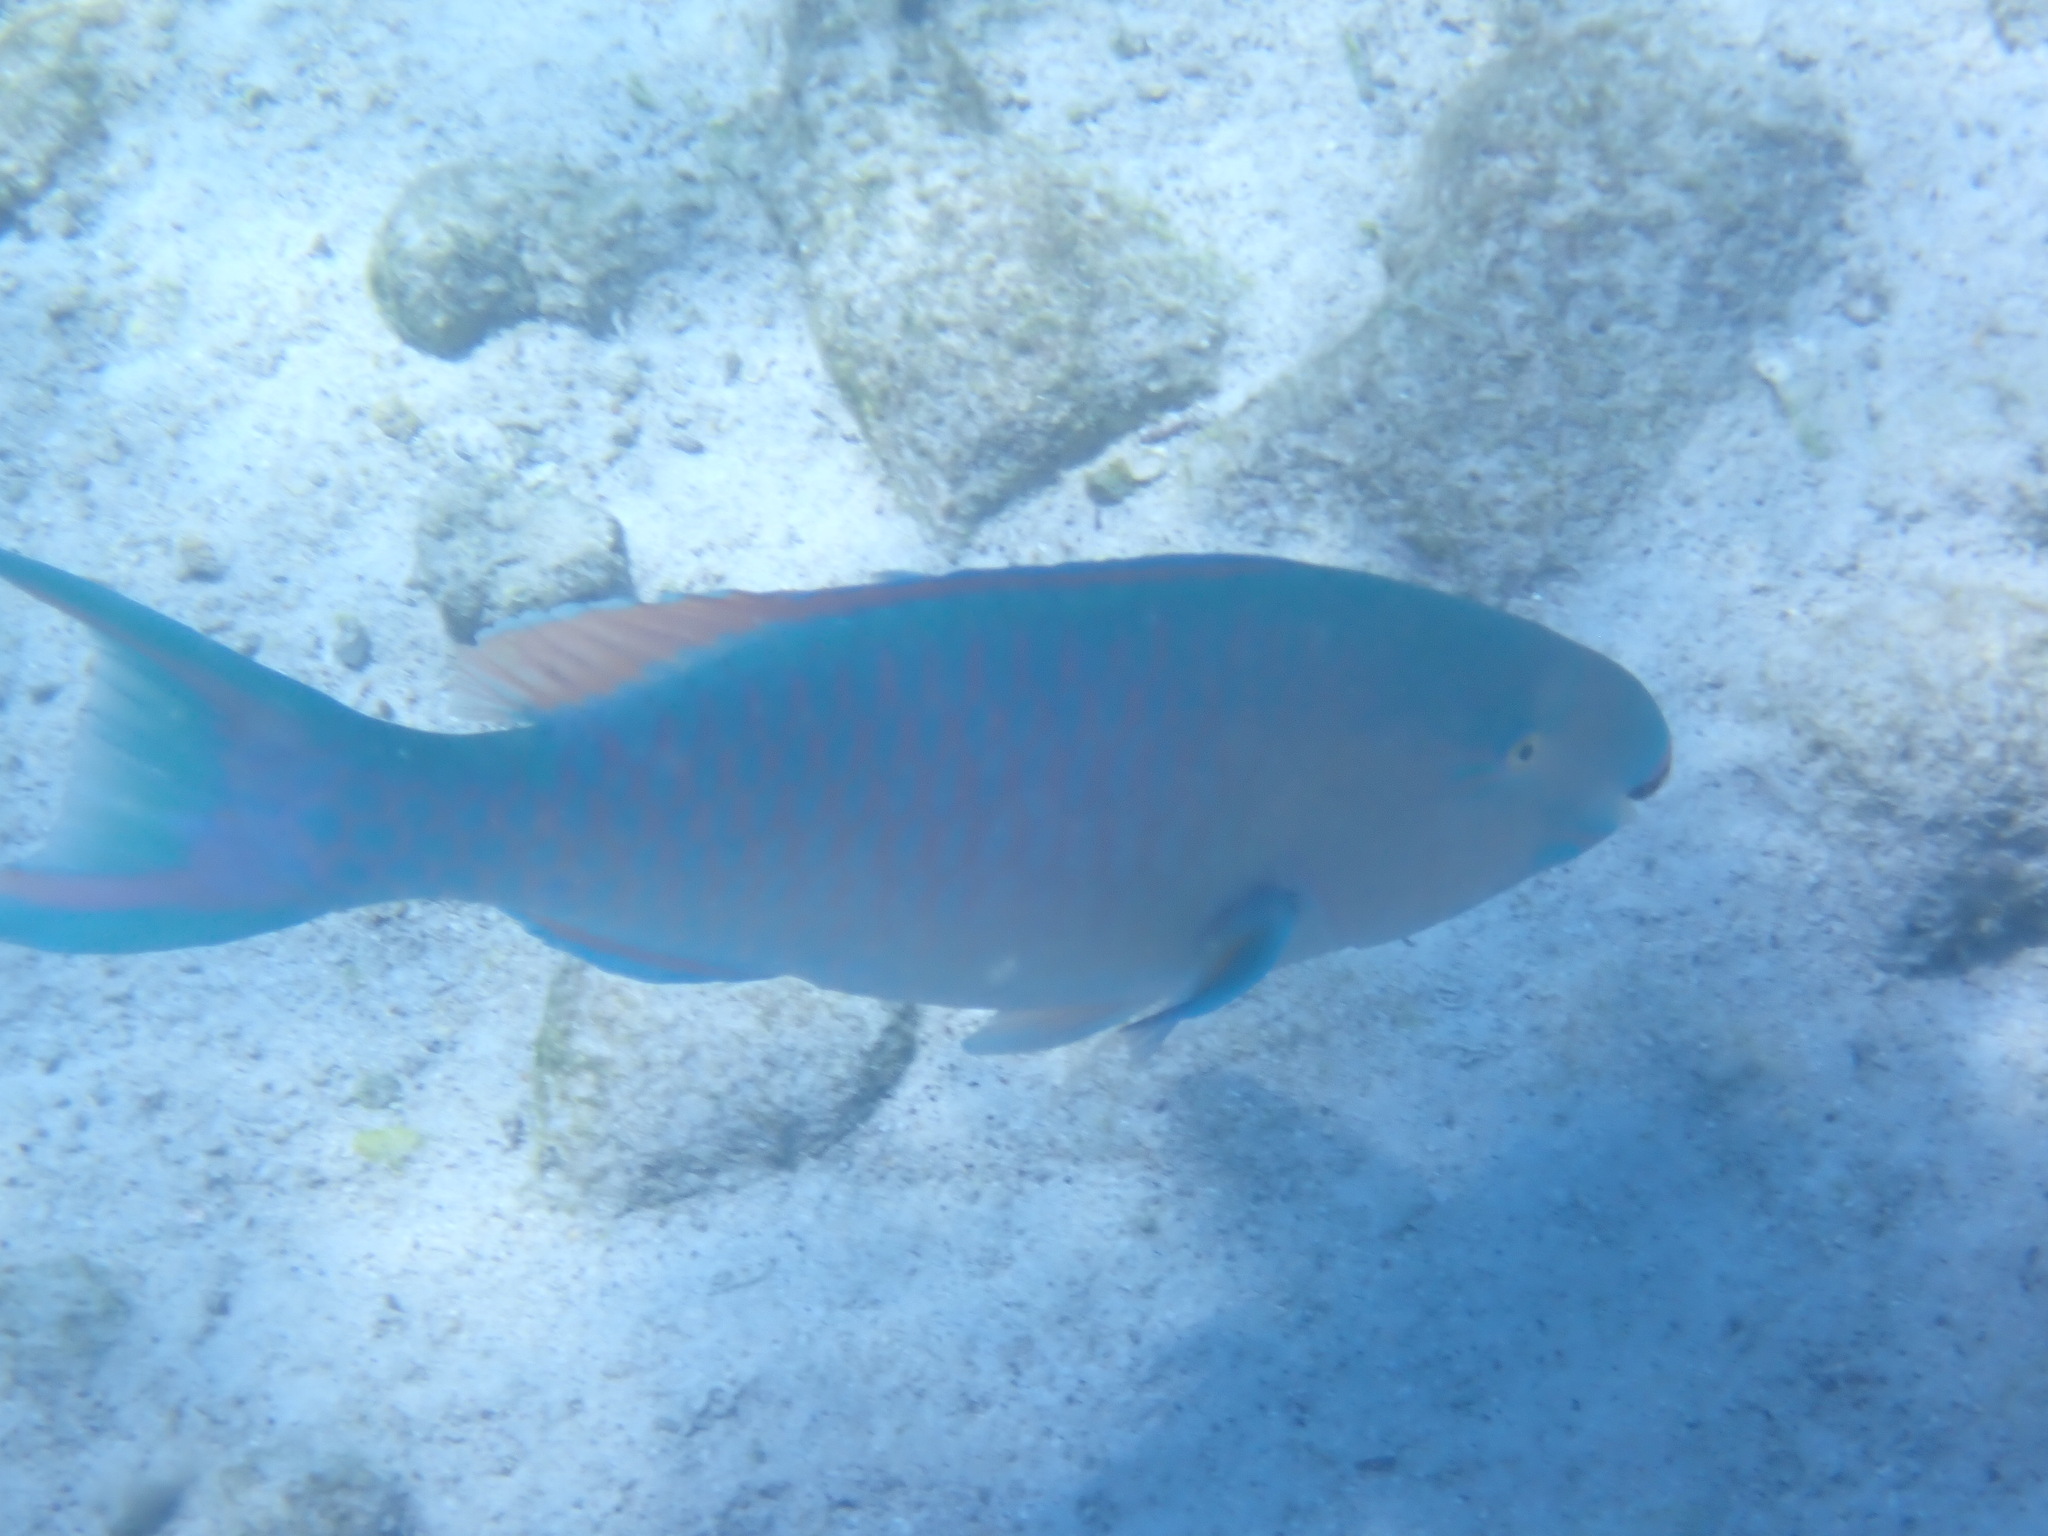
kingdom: Animalia
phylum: Chordata
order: Perciformes
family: Scaridae
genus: Scarus
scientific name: Scarus ghobban
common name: Blue-barred parrotfish
